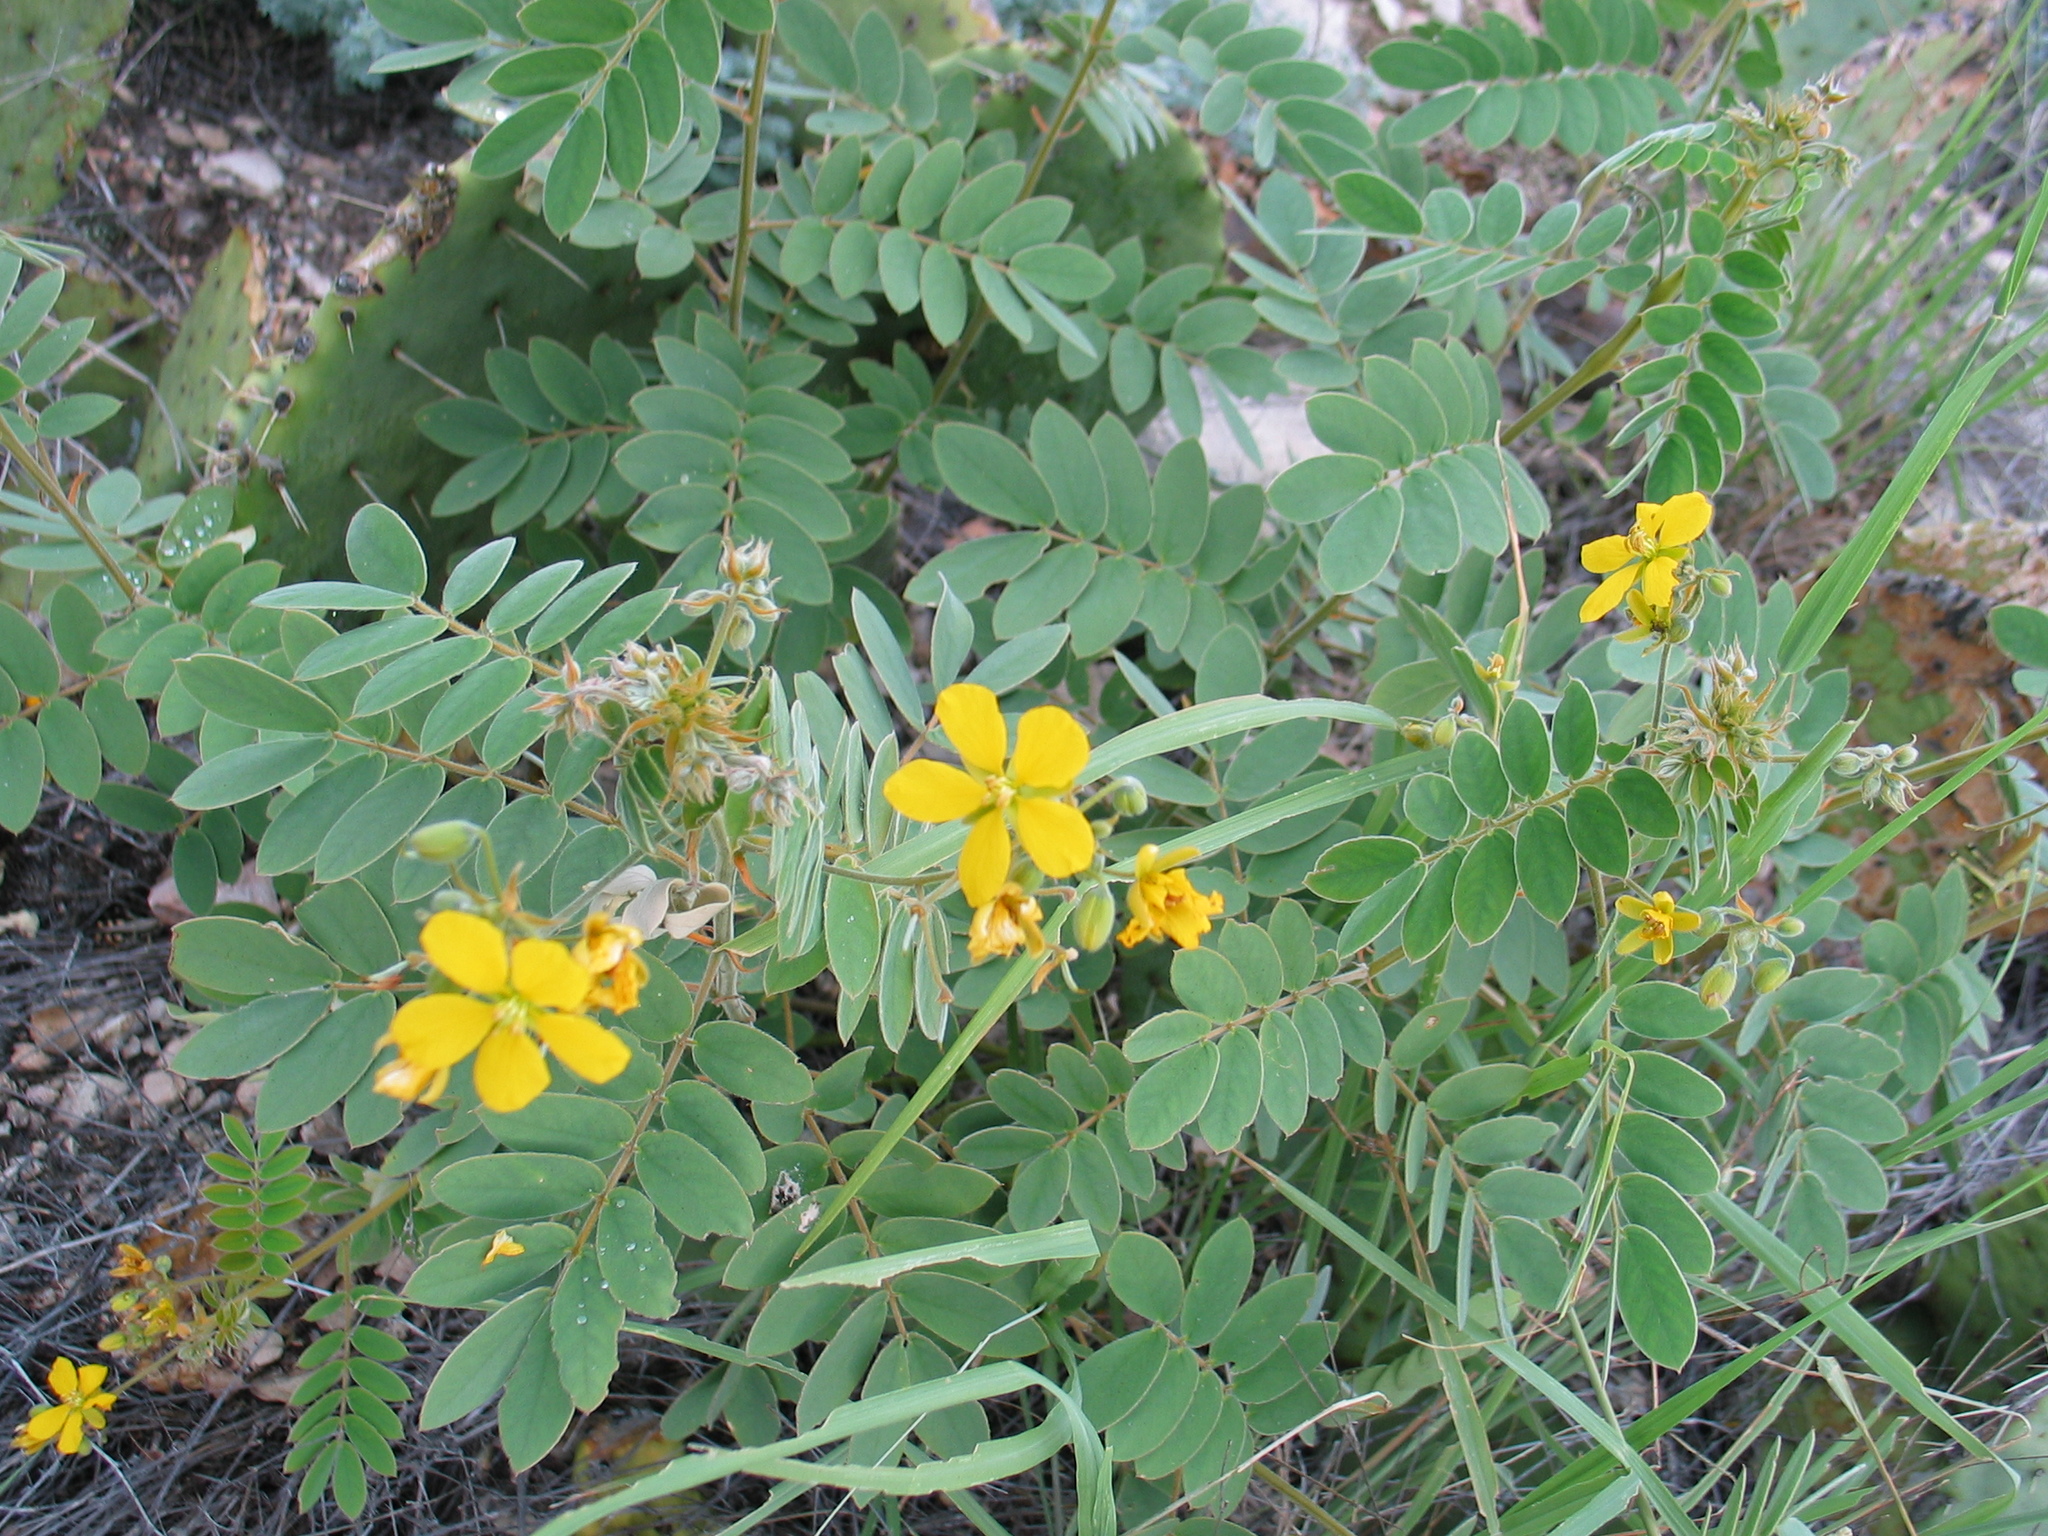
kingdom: Plantae
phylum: Tracheophyta
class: Magnoliopsida
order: Fabales
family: Fabaceae
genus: Senna
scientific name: Senna lindheimeriana
